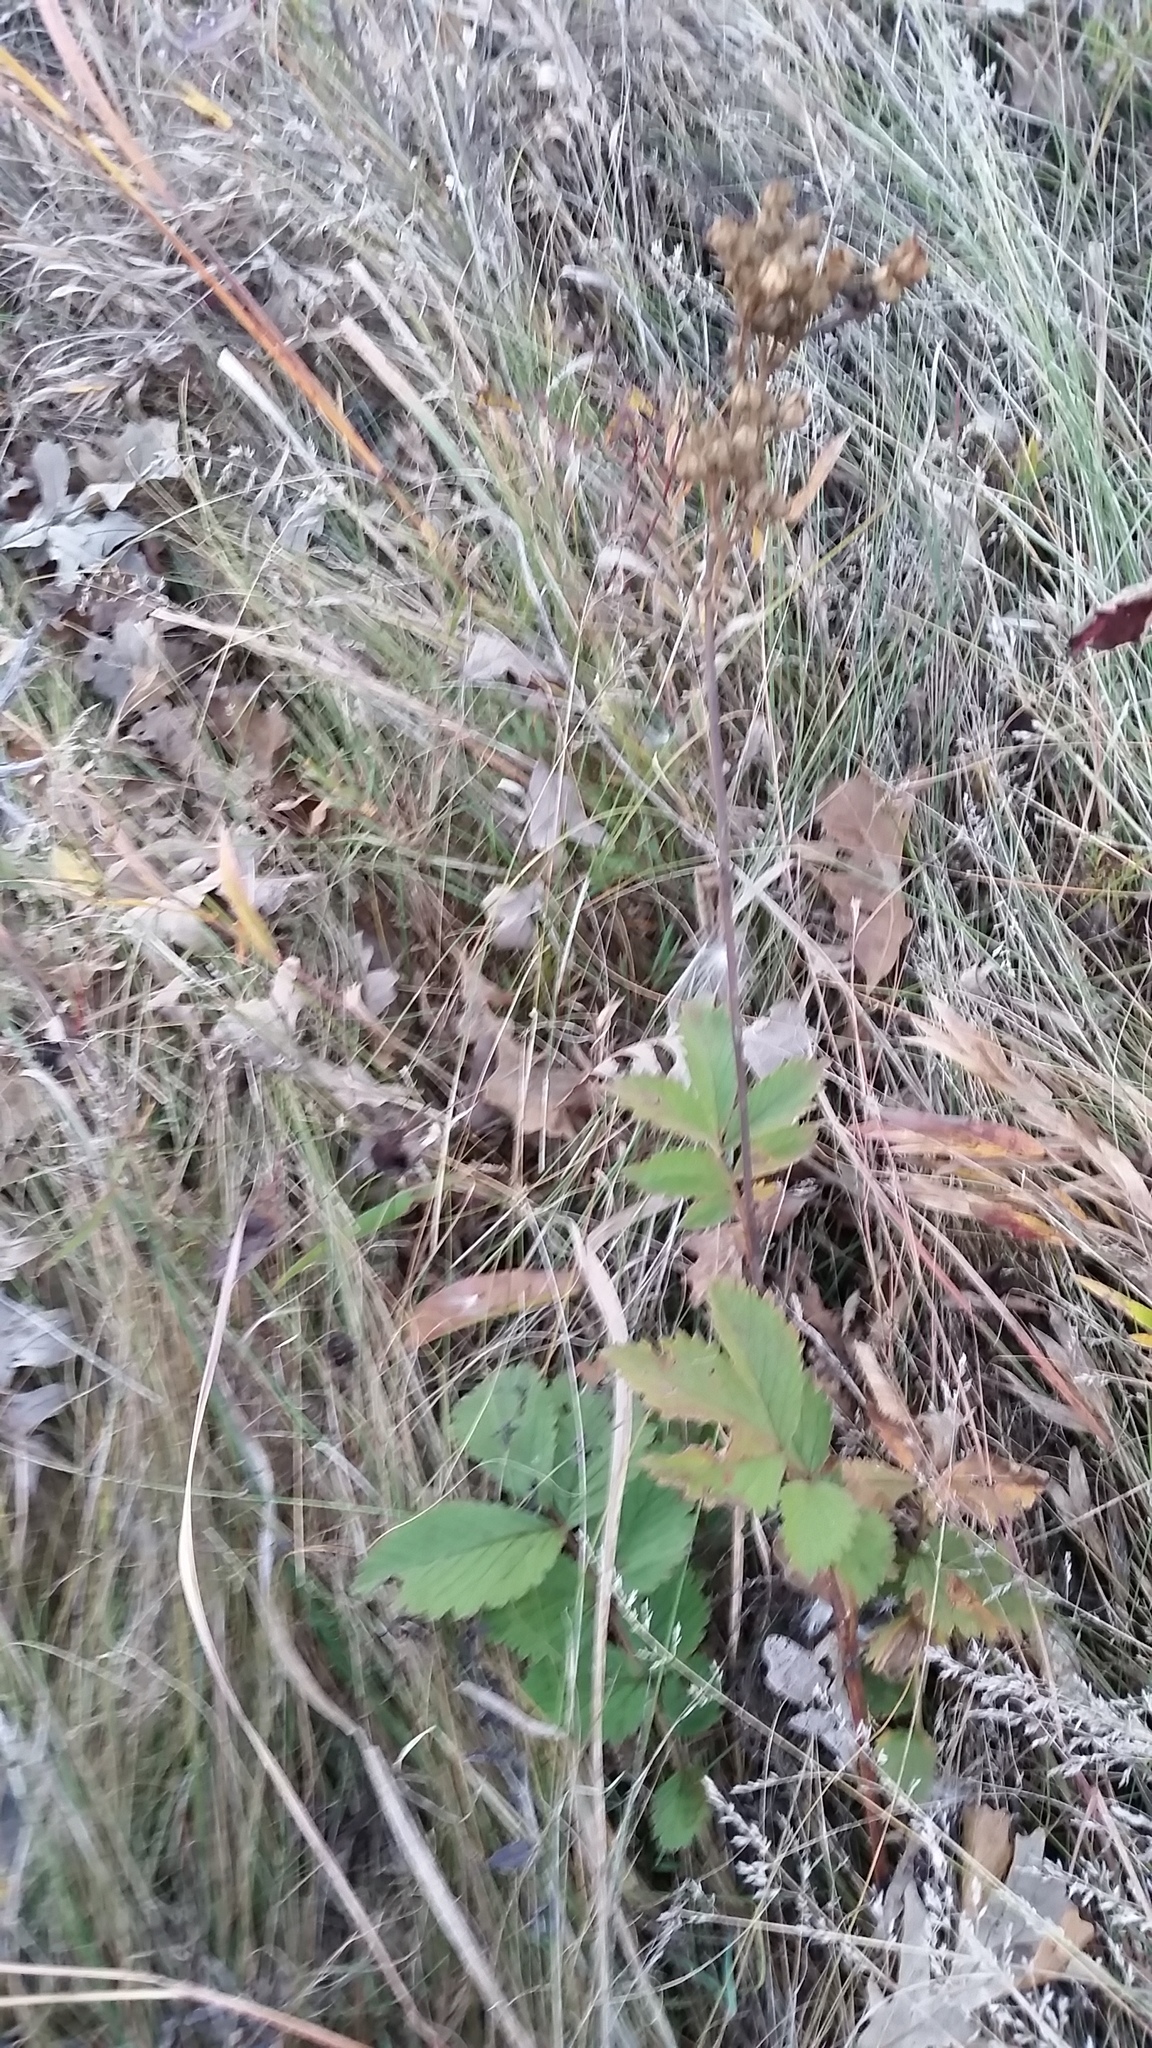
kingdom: Plantae
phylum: Tracheophyta
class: Magnoliopsida
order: Rosales
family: Rosaceae
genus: Drymocallis
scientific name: Drymocallis arguta
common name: Tall cinquefoil
